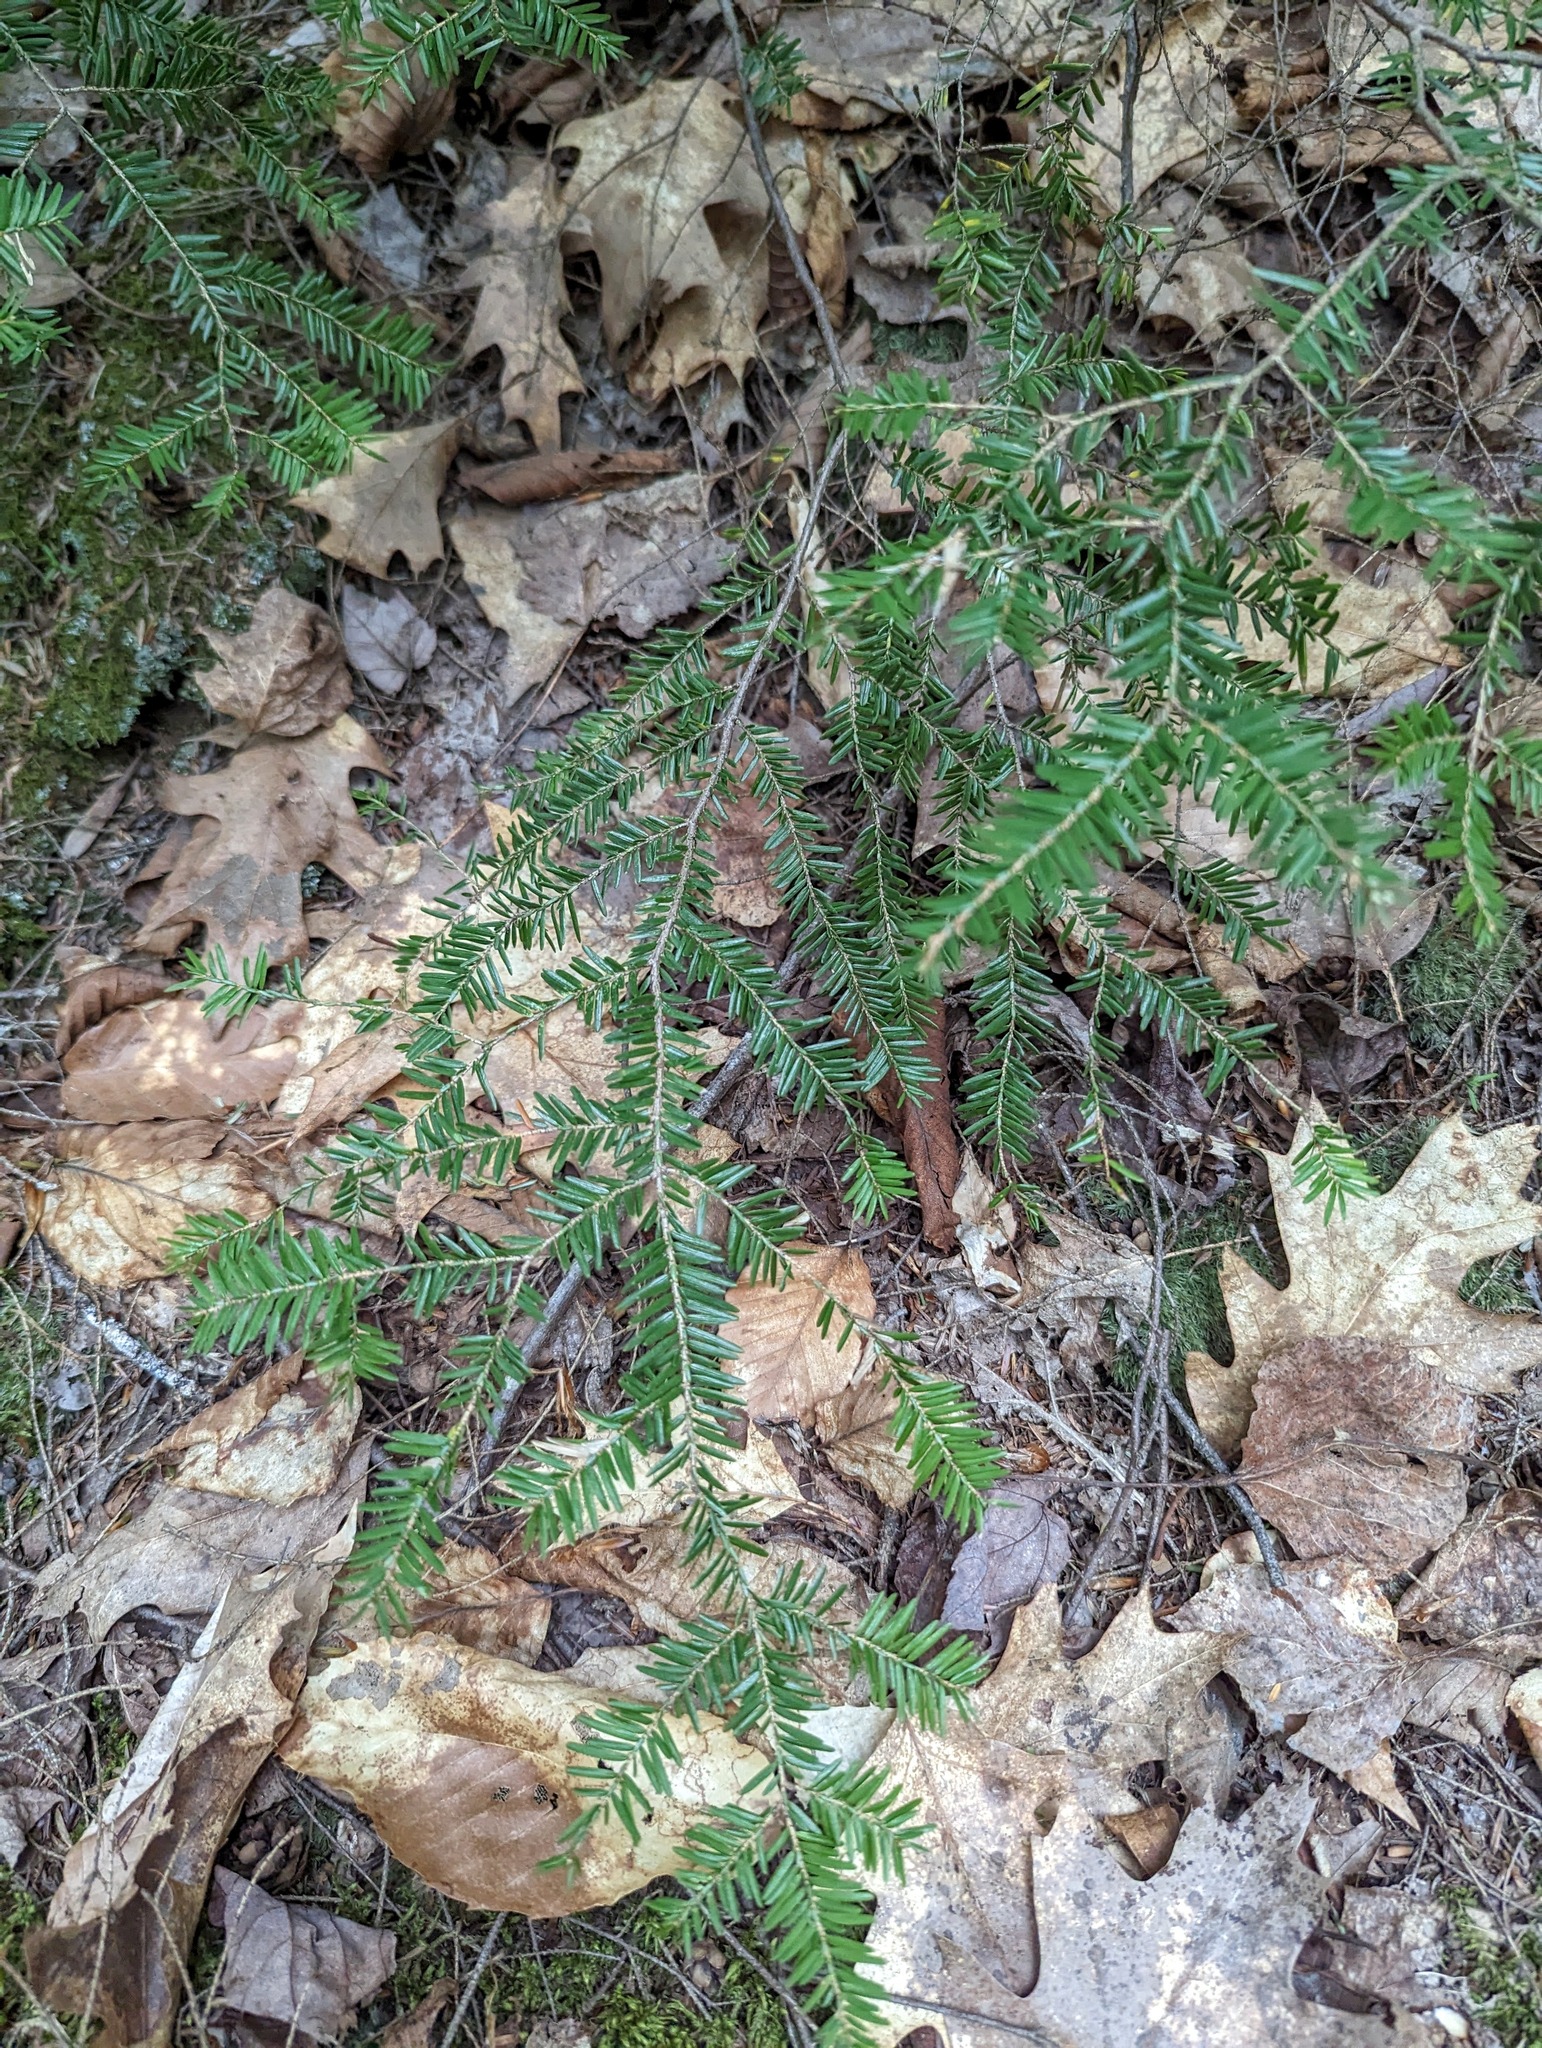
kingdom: Plantae
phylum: Tracheophyta
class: Pinopsida
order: Pinales
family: Pinaceae
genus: Tsuga
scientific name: Tsuga canadensis
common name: Eastern hemlock
